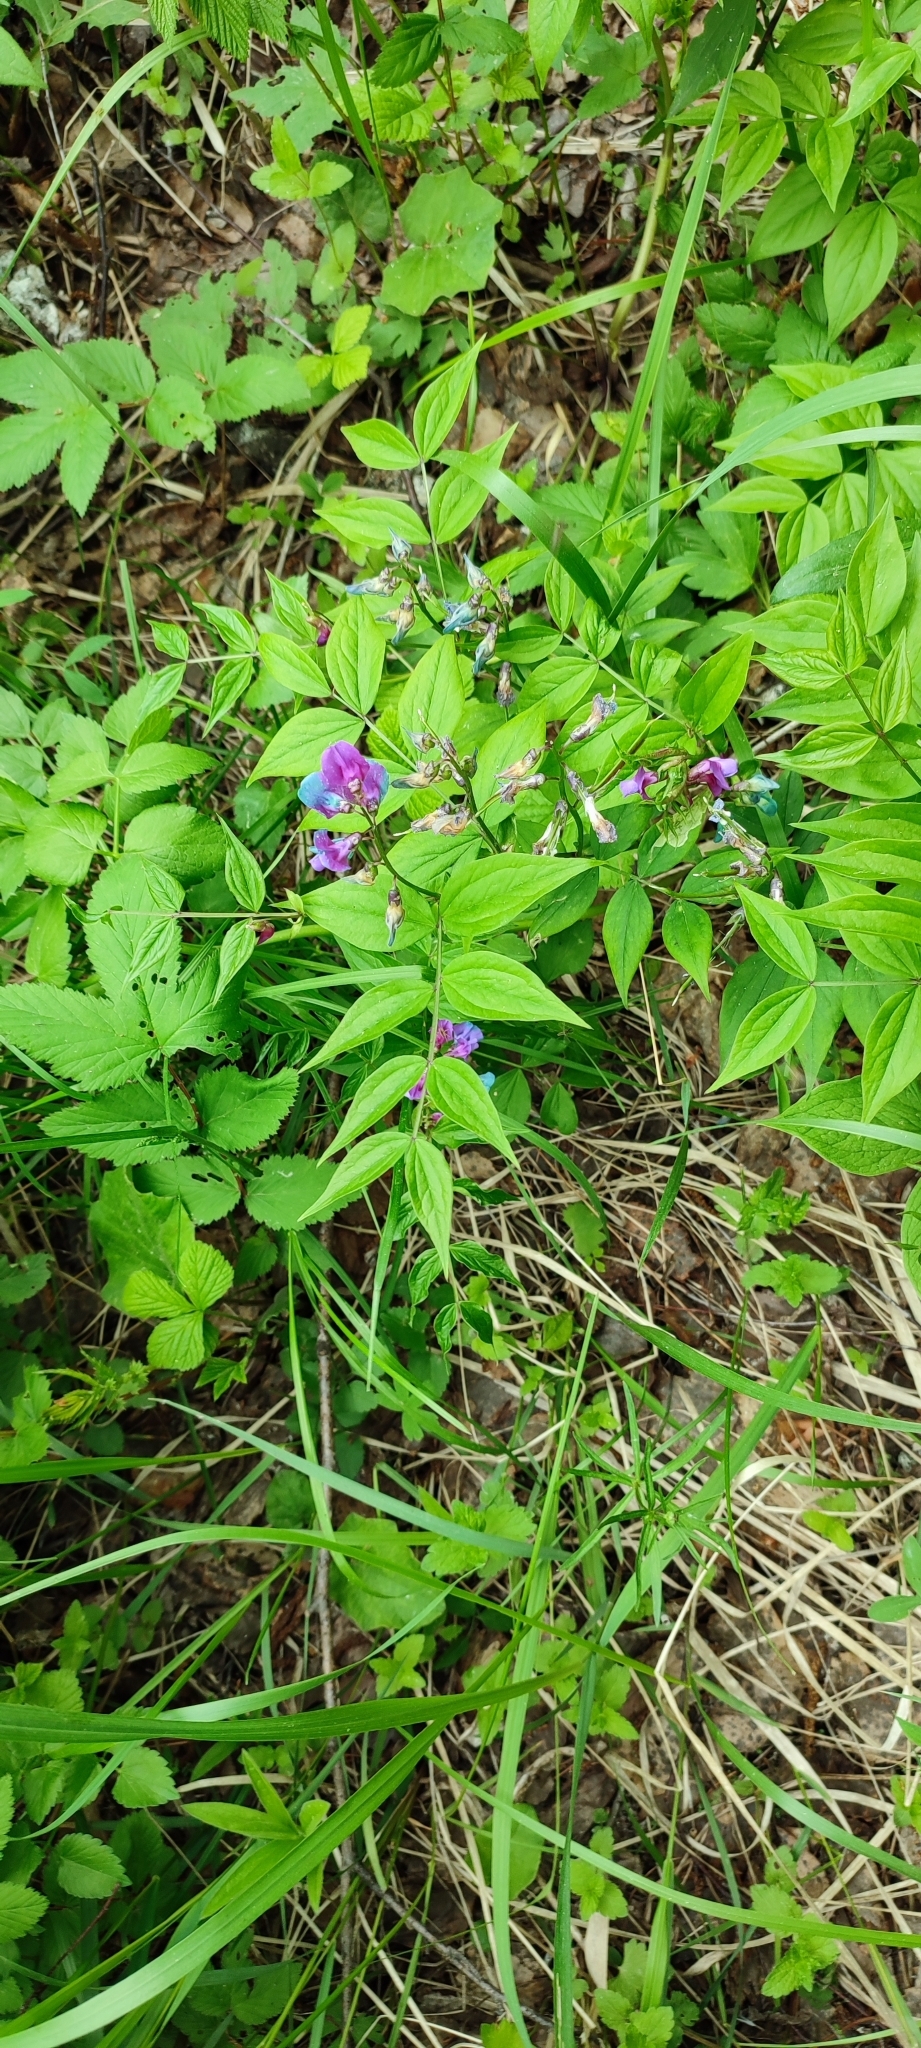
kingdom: Plantae
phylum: Tracheophyta
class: Magnoliopsida
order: Fabales
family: Fabaceae
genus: Lathyrus
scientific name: Lathyrus vernus
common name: Spring pea
